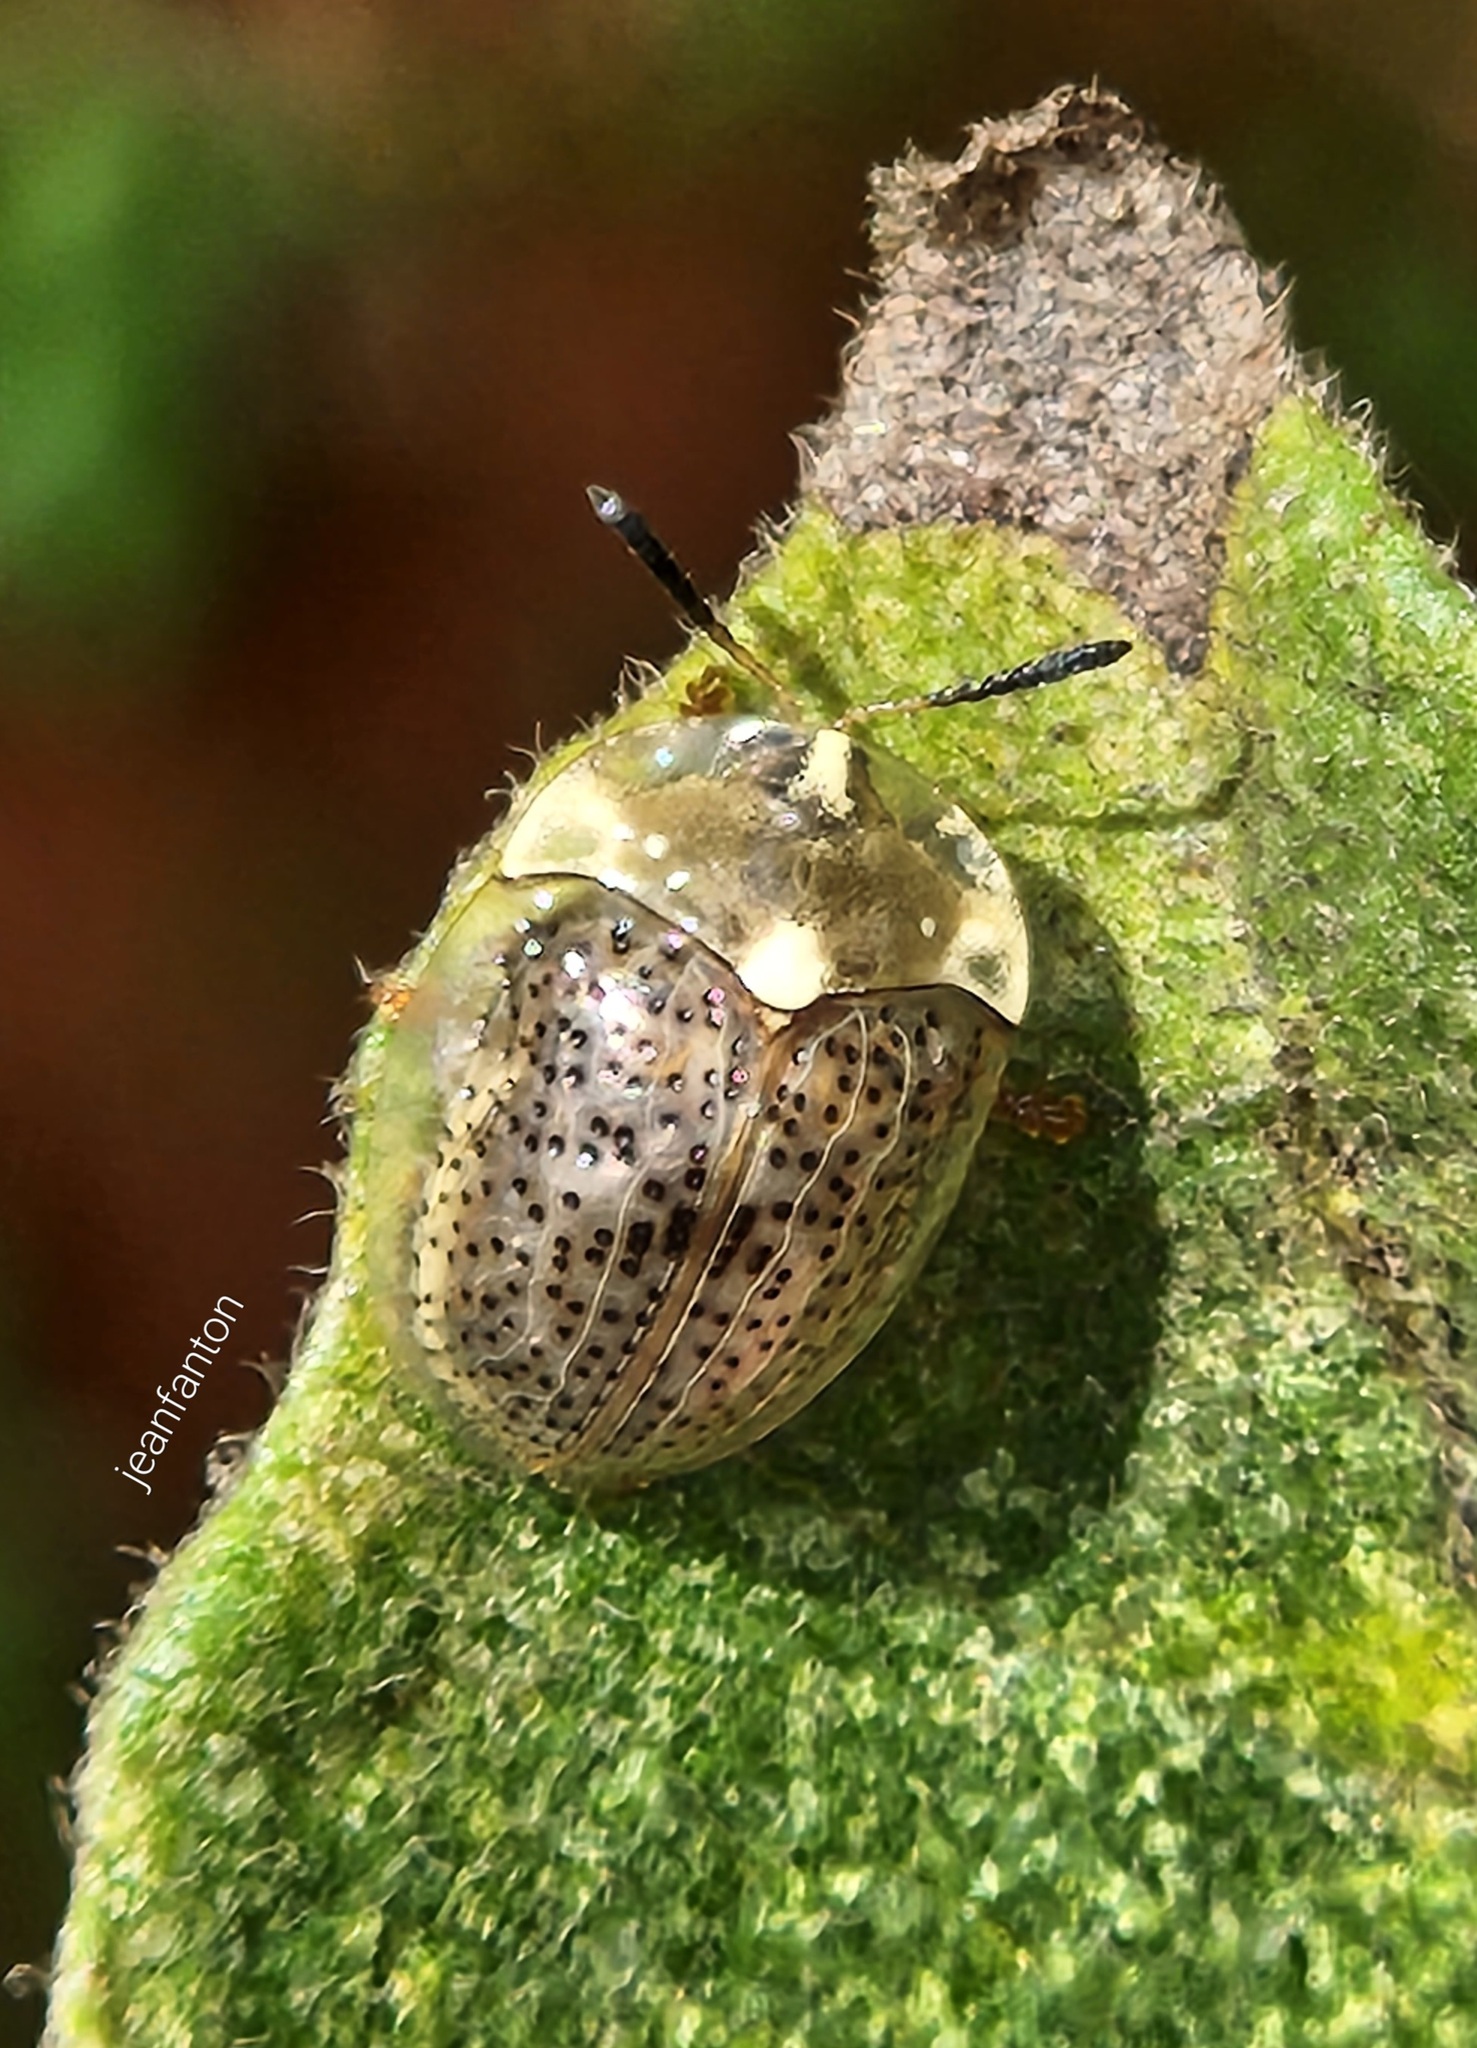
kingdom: Animalia
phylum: Arthropoda
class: Insecta
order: Coleoptera
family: Chrysomelidae
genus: Cistudinella
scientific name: Cistudinella obducta
